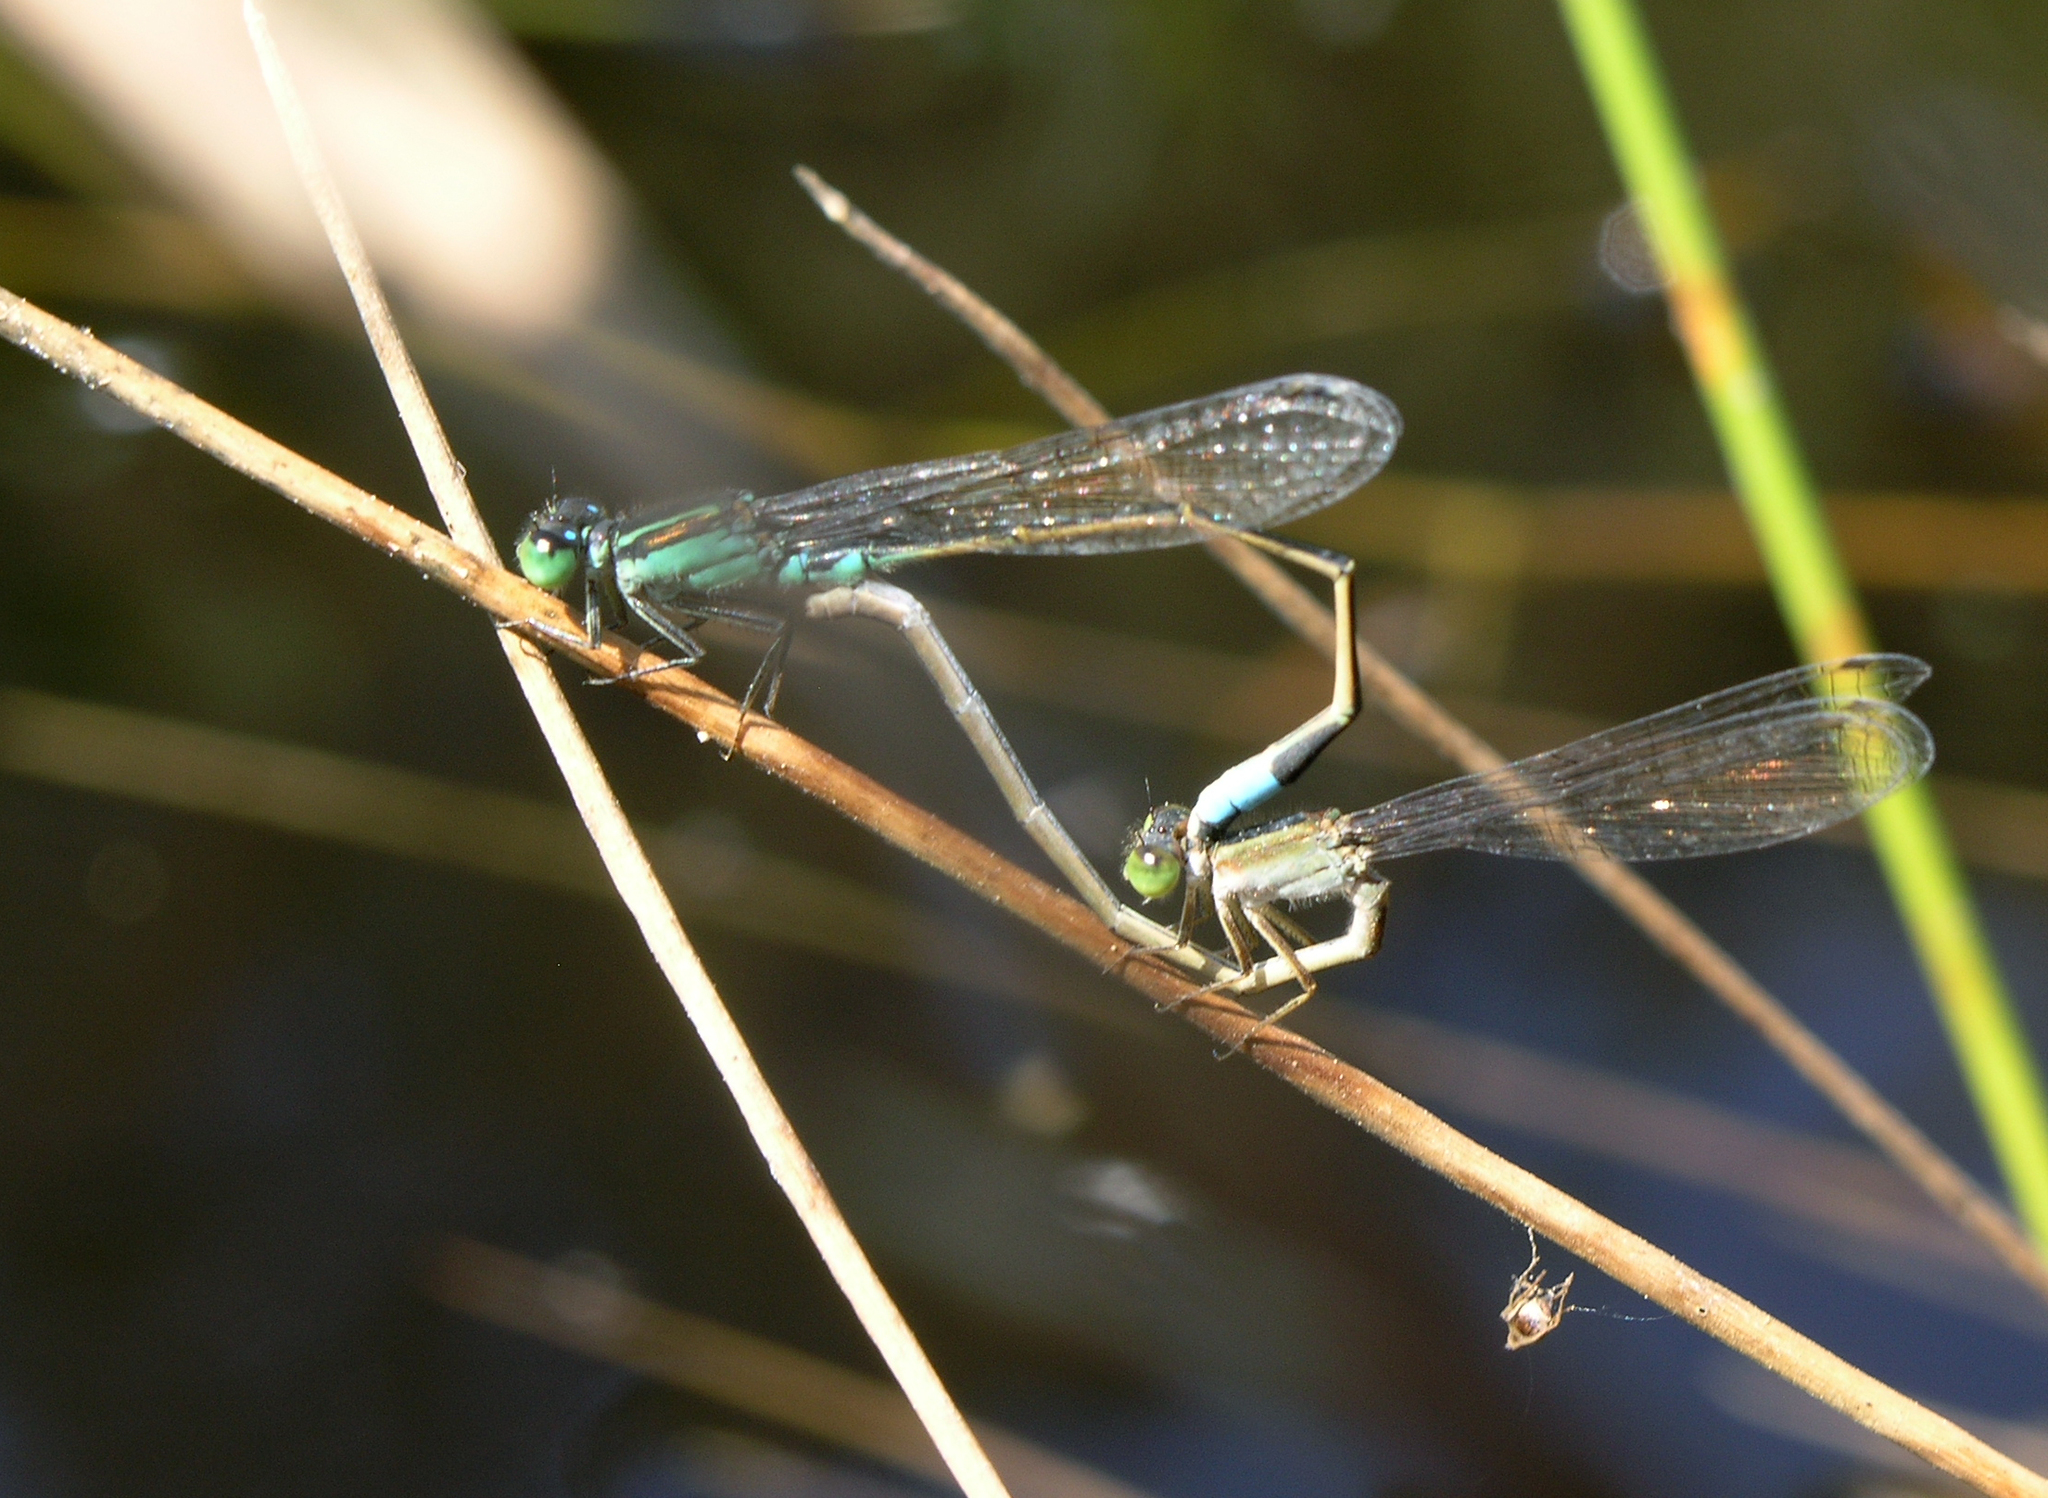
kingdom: Animalia
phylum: Arthropoda
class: Insecta
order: Odonata
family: Coenagrionidae
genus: Ischnura
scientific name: Ischnura senegalensis
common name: Tropical bluetail
